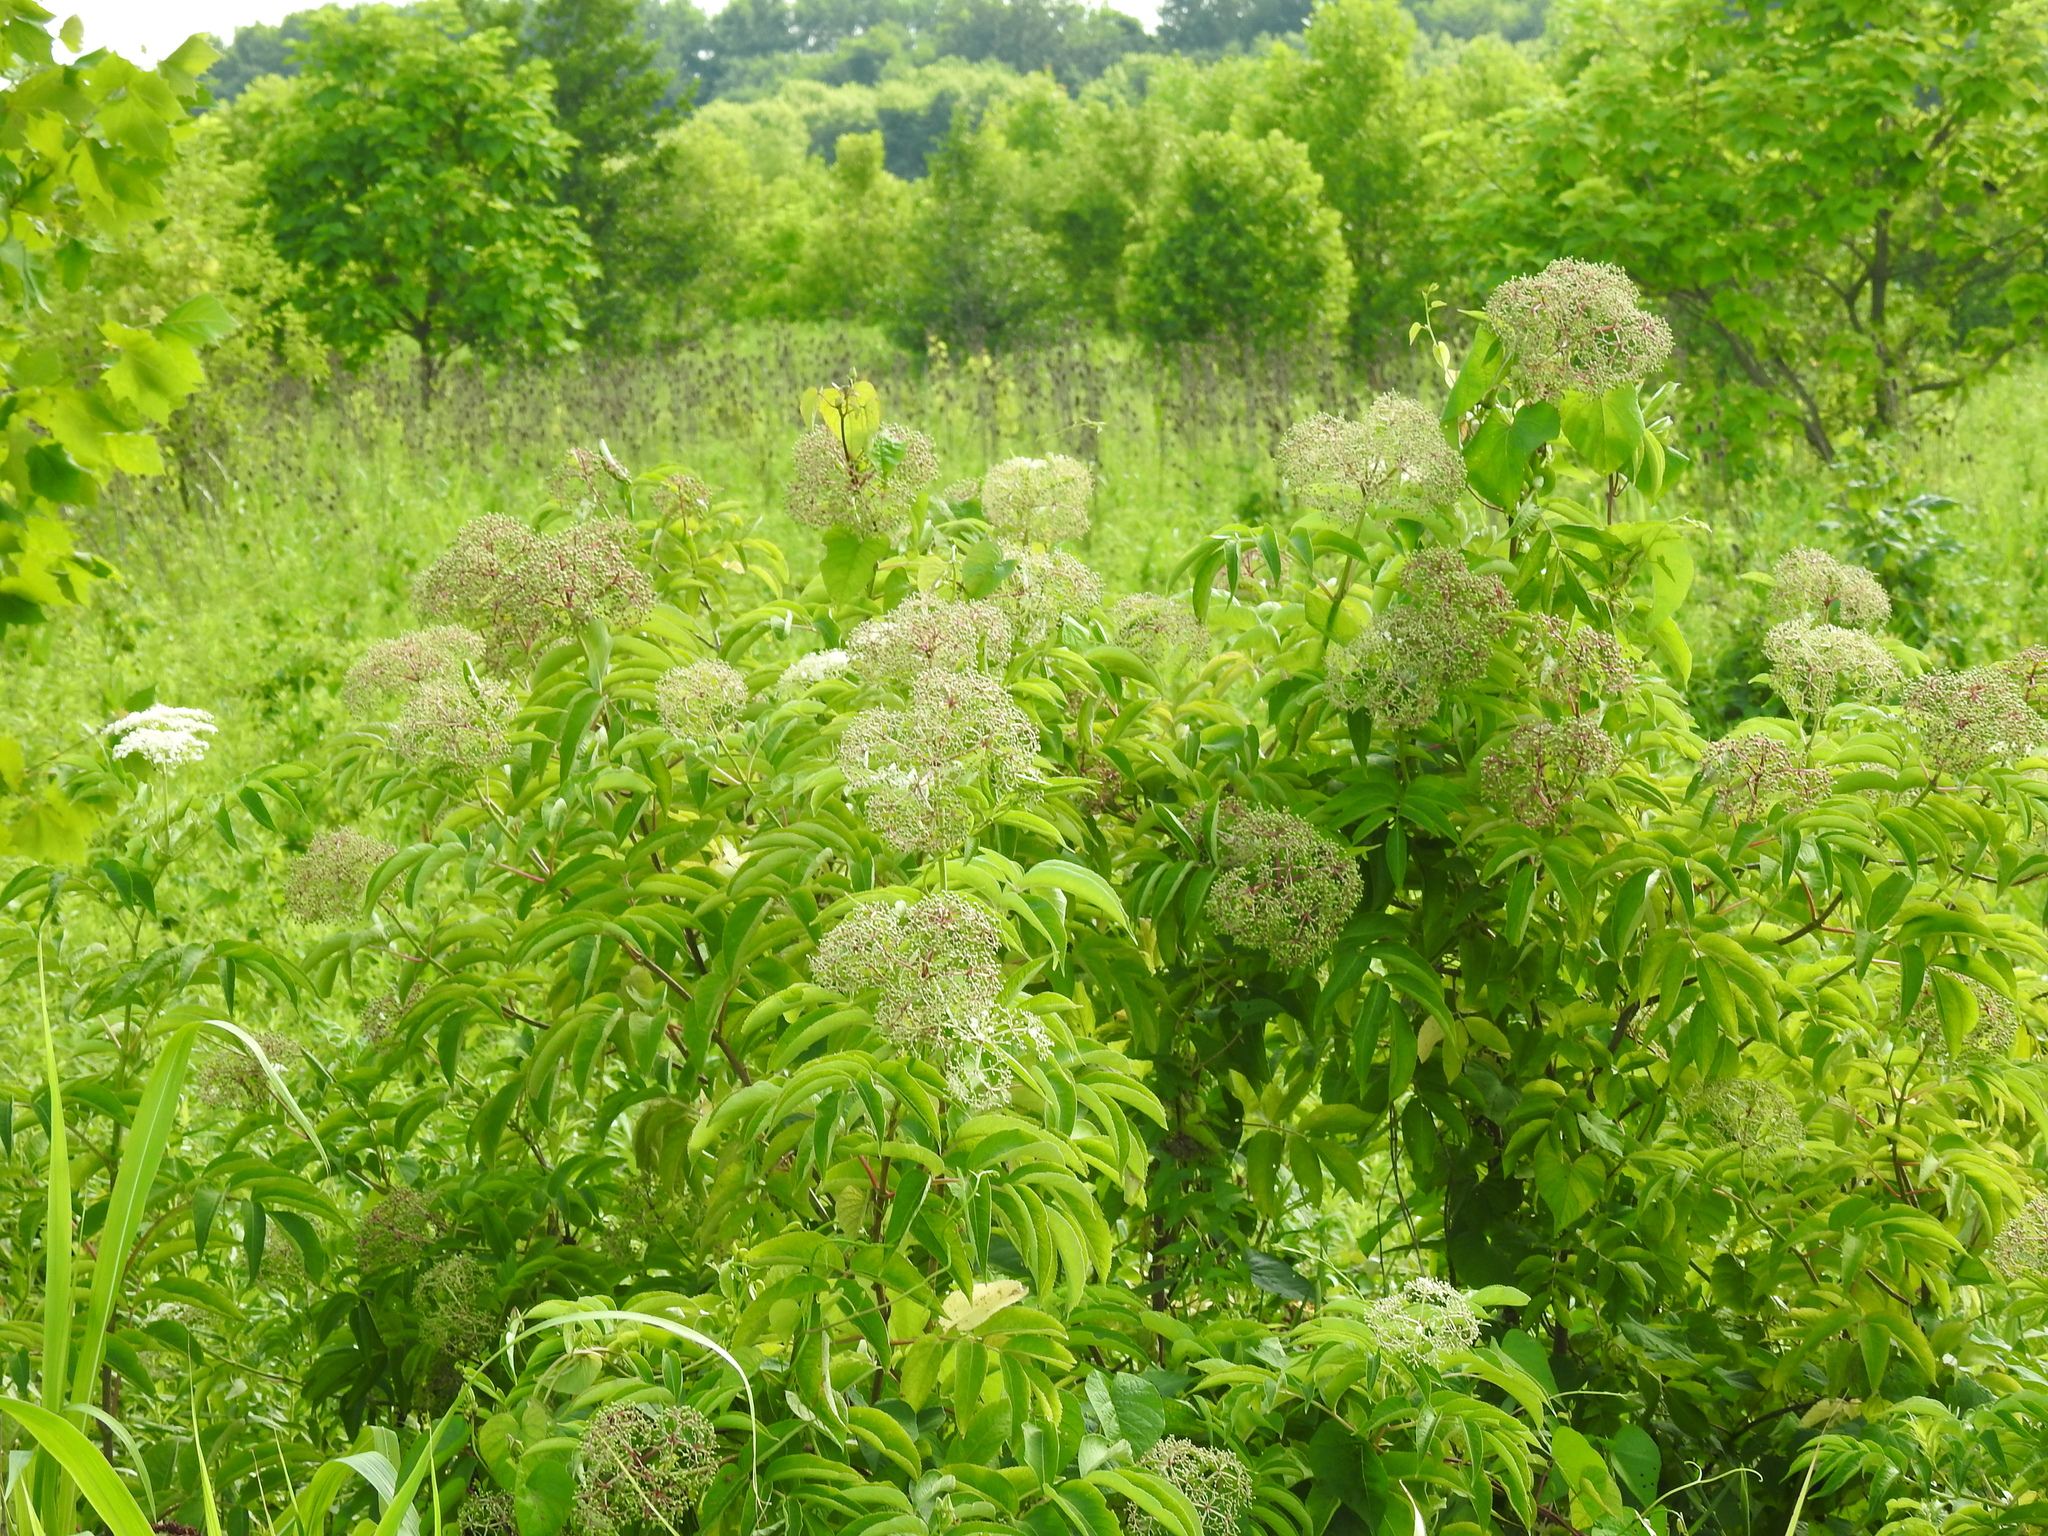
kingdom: Plantae
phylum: Tracheophyta
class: Magnoliopsida
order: Dipsacales
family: Viburnaceae
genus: Sambucus
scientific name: Sambucus canadensis
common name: American elder
